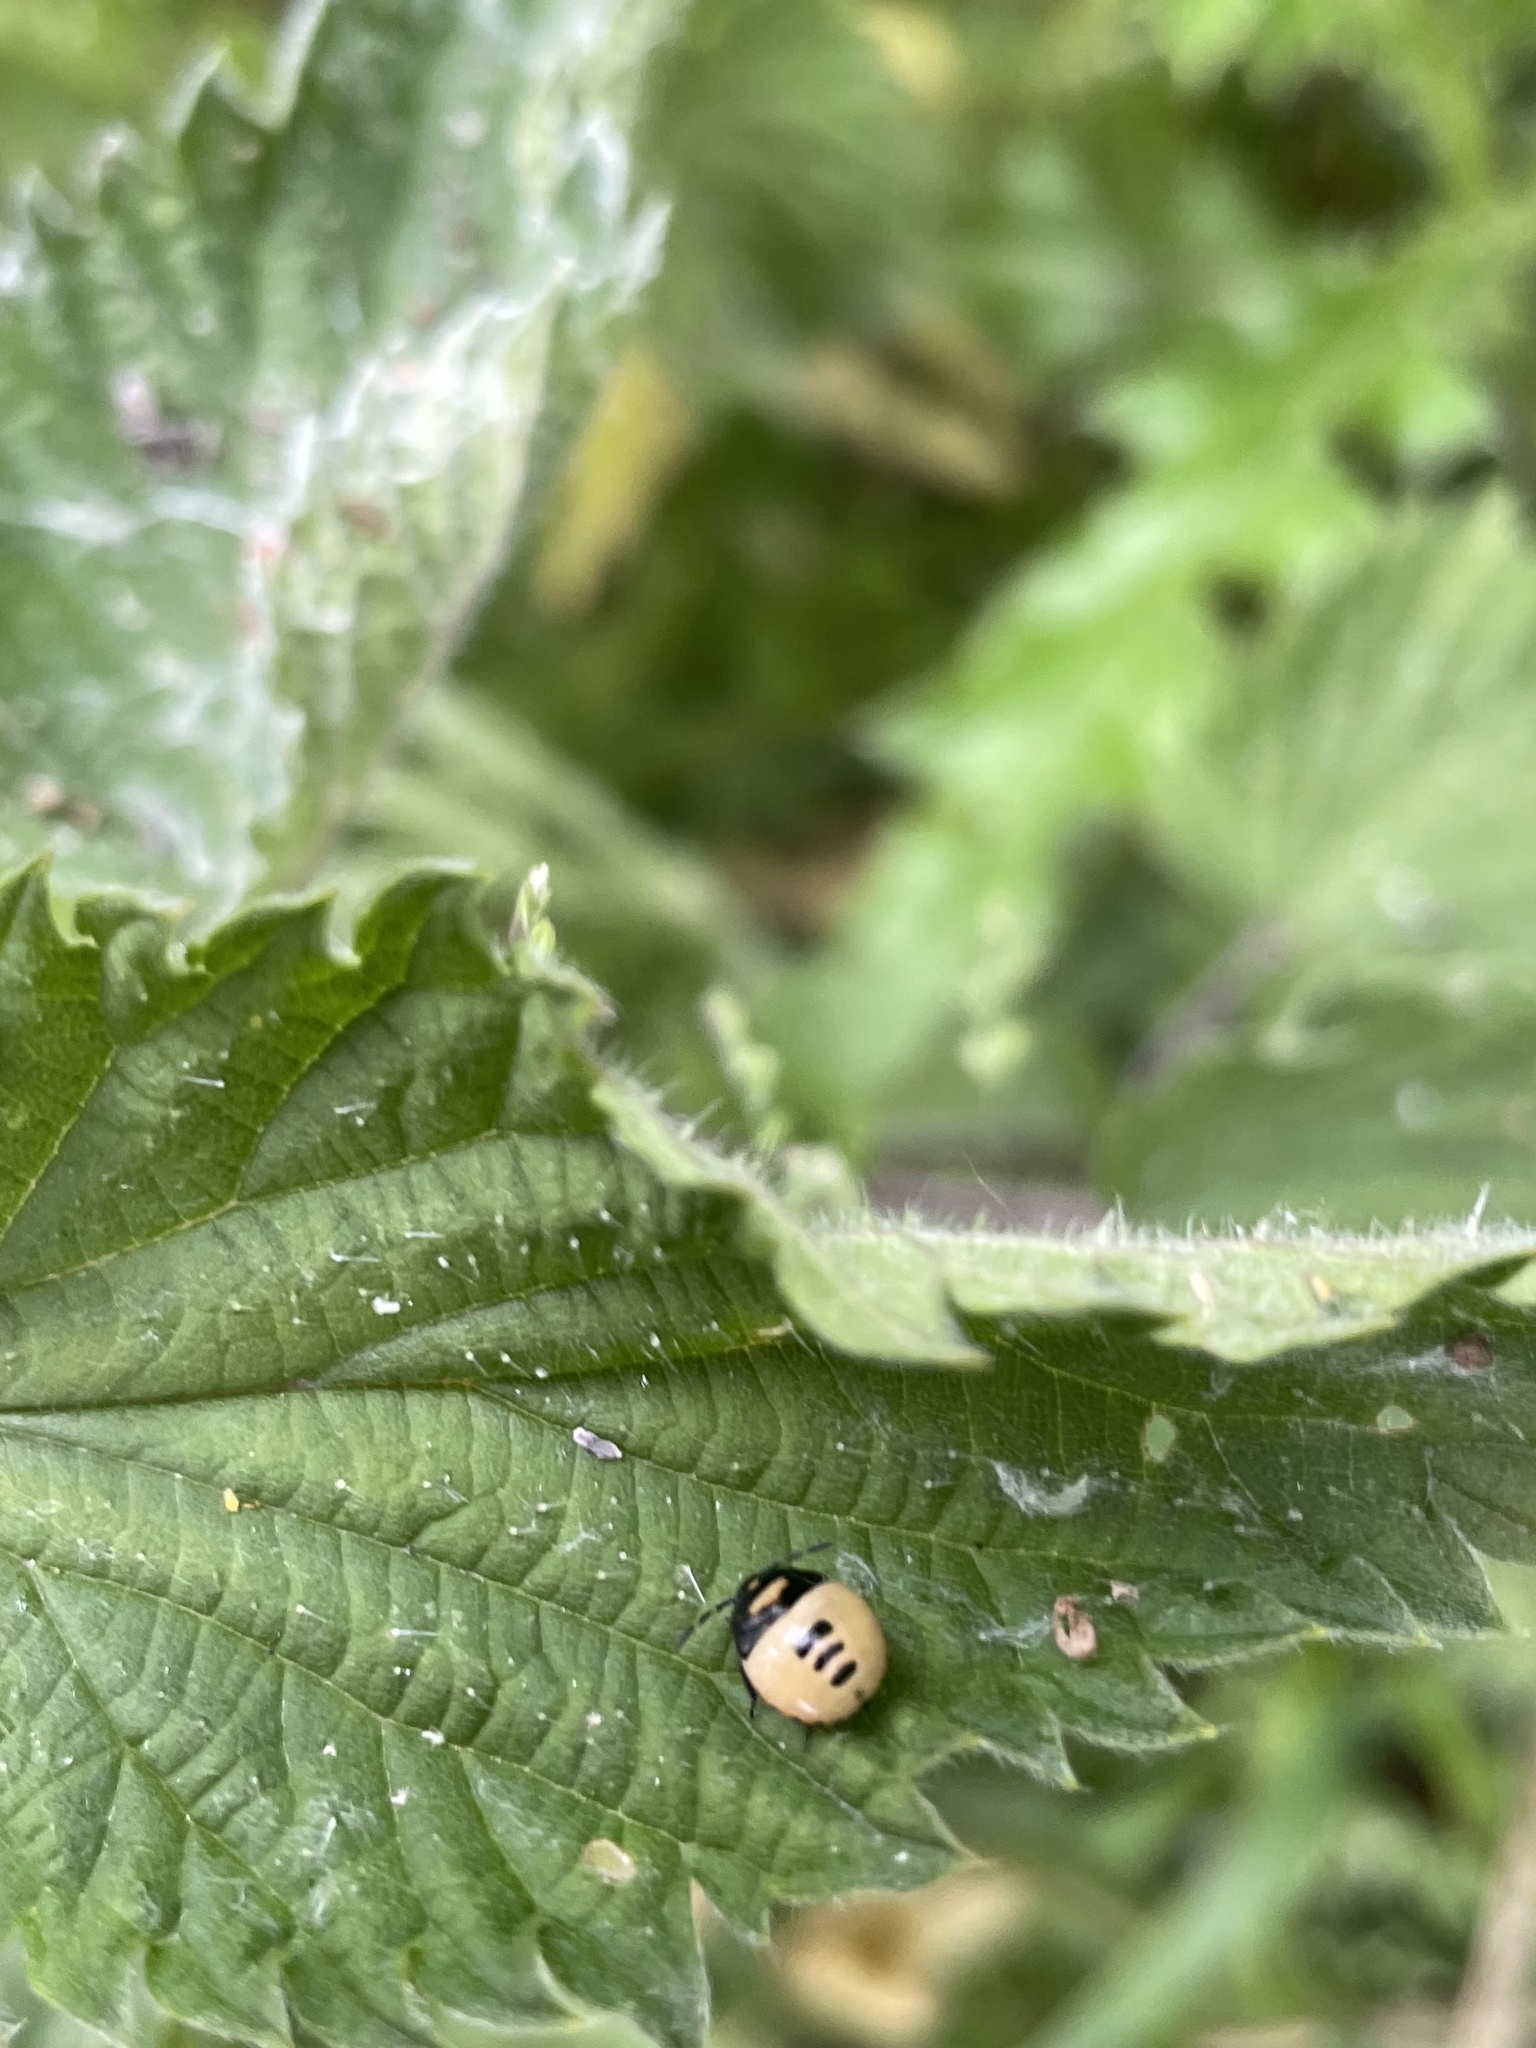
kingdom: Animalia
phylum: Arthropoda
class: Insecta
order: Hemiptera
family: Cydnidae
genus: Tritomegas
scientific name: Tritomegas bicolor
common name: Pied shieldbug
